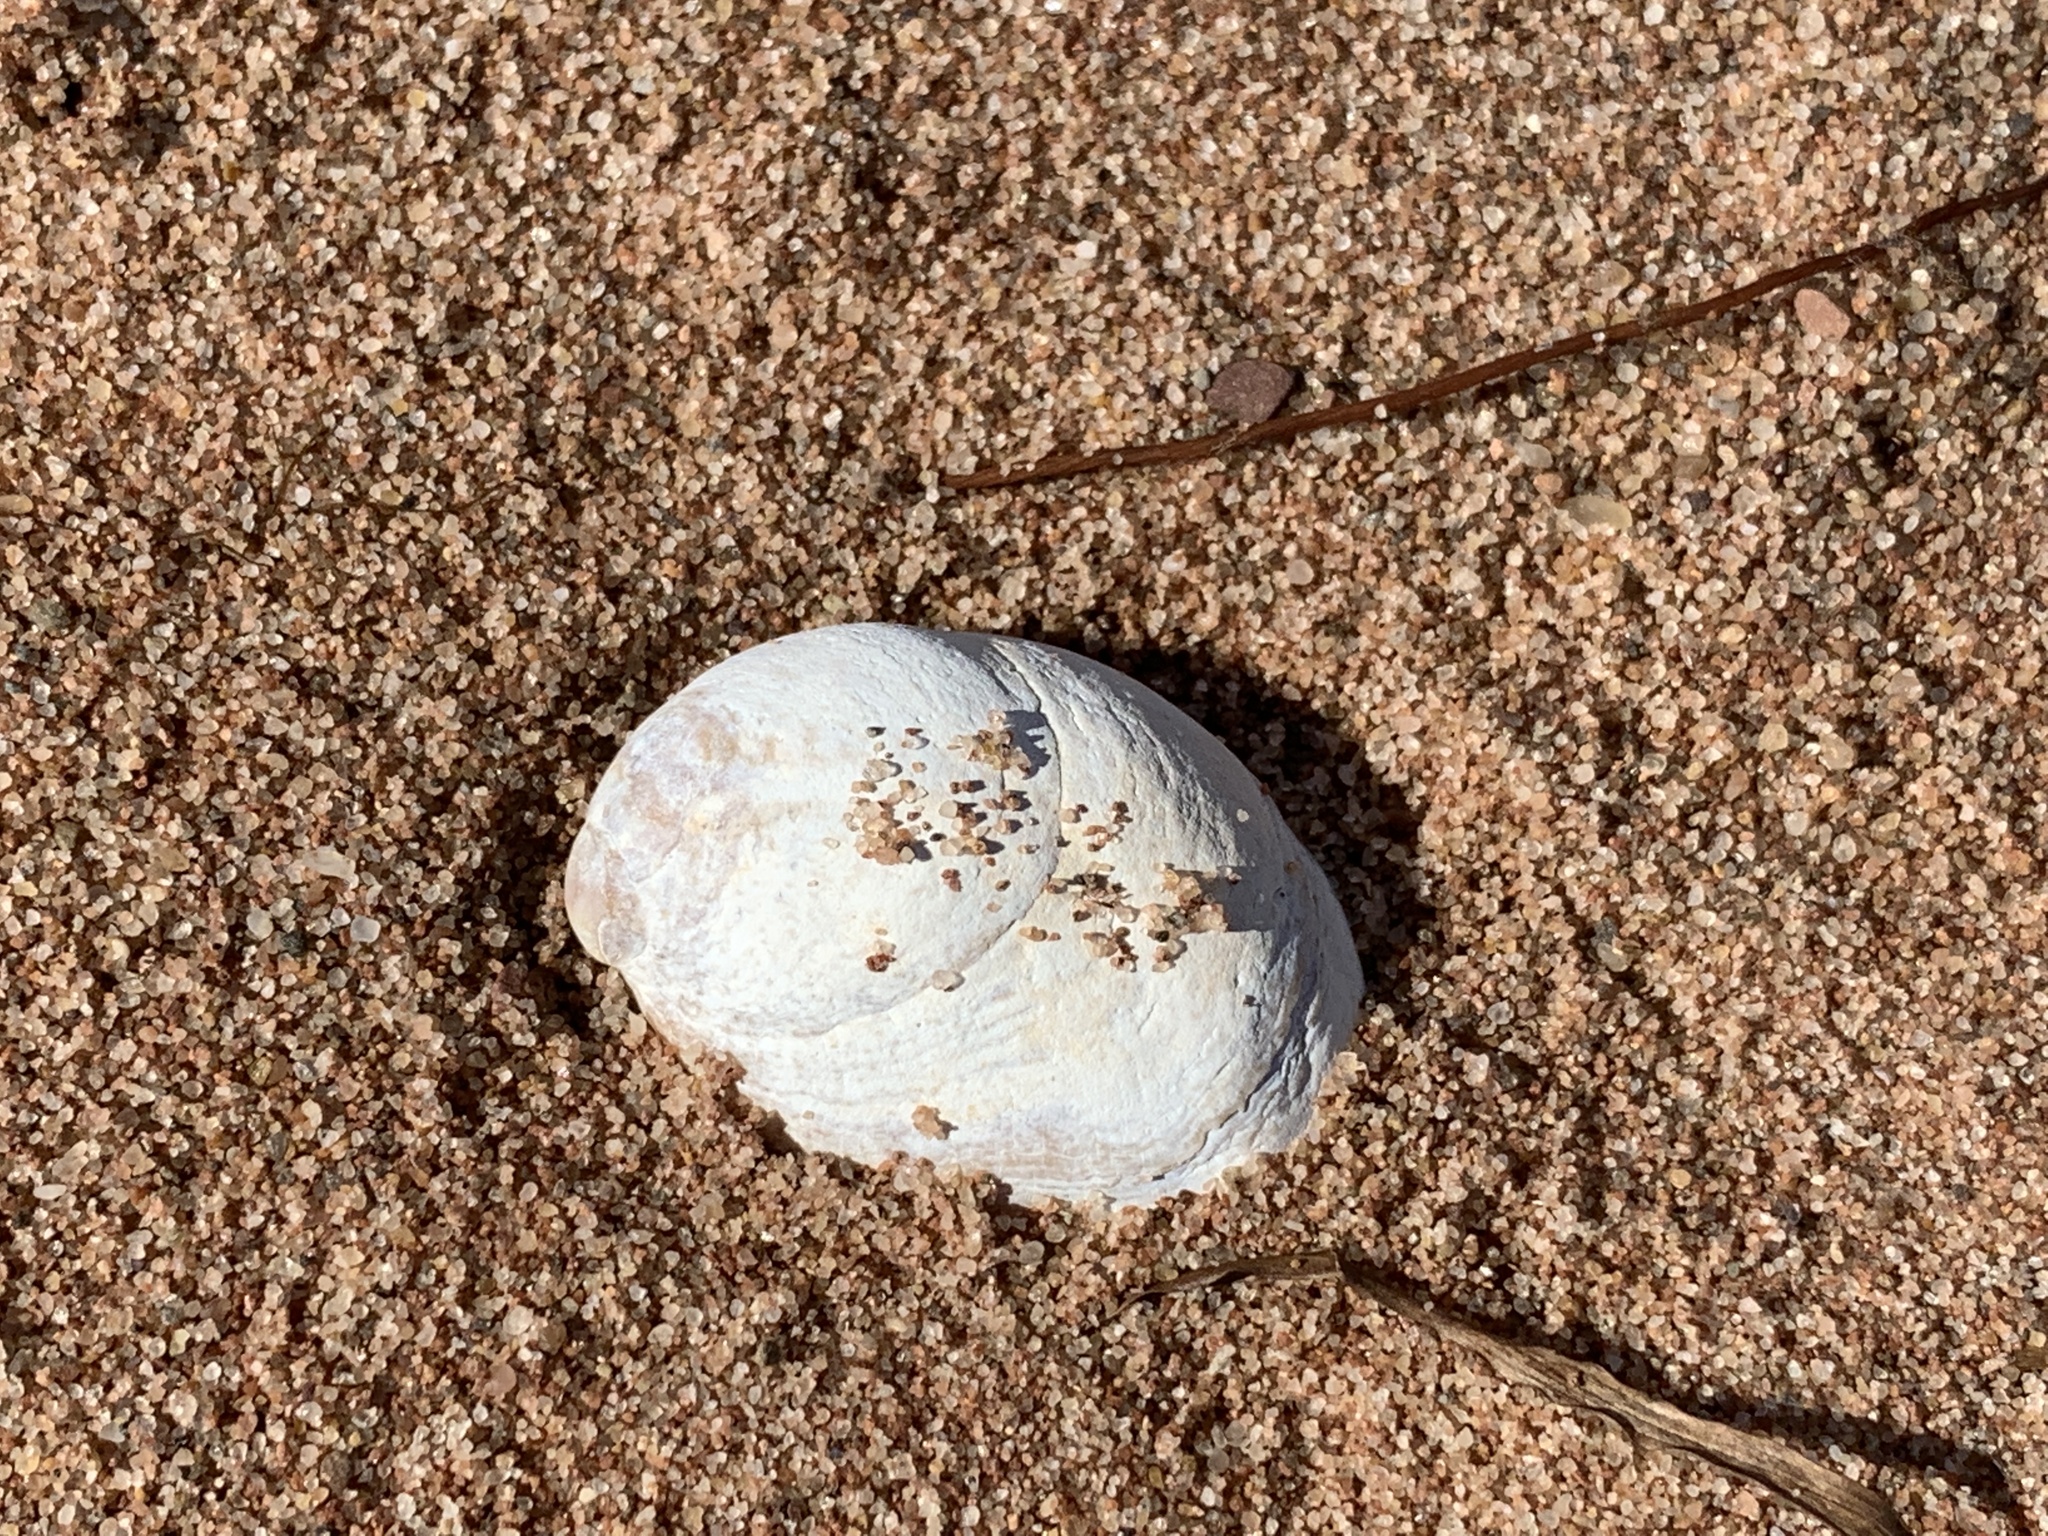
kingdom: Animalia
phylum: Mollusca
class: Gastropoda
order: Littorinimorpha
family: Calyptraeidae
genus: Crepidula
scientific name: Crepidula fornicata
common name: Slipper limpet
